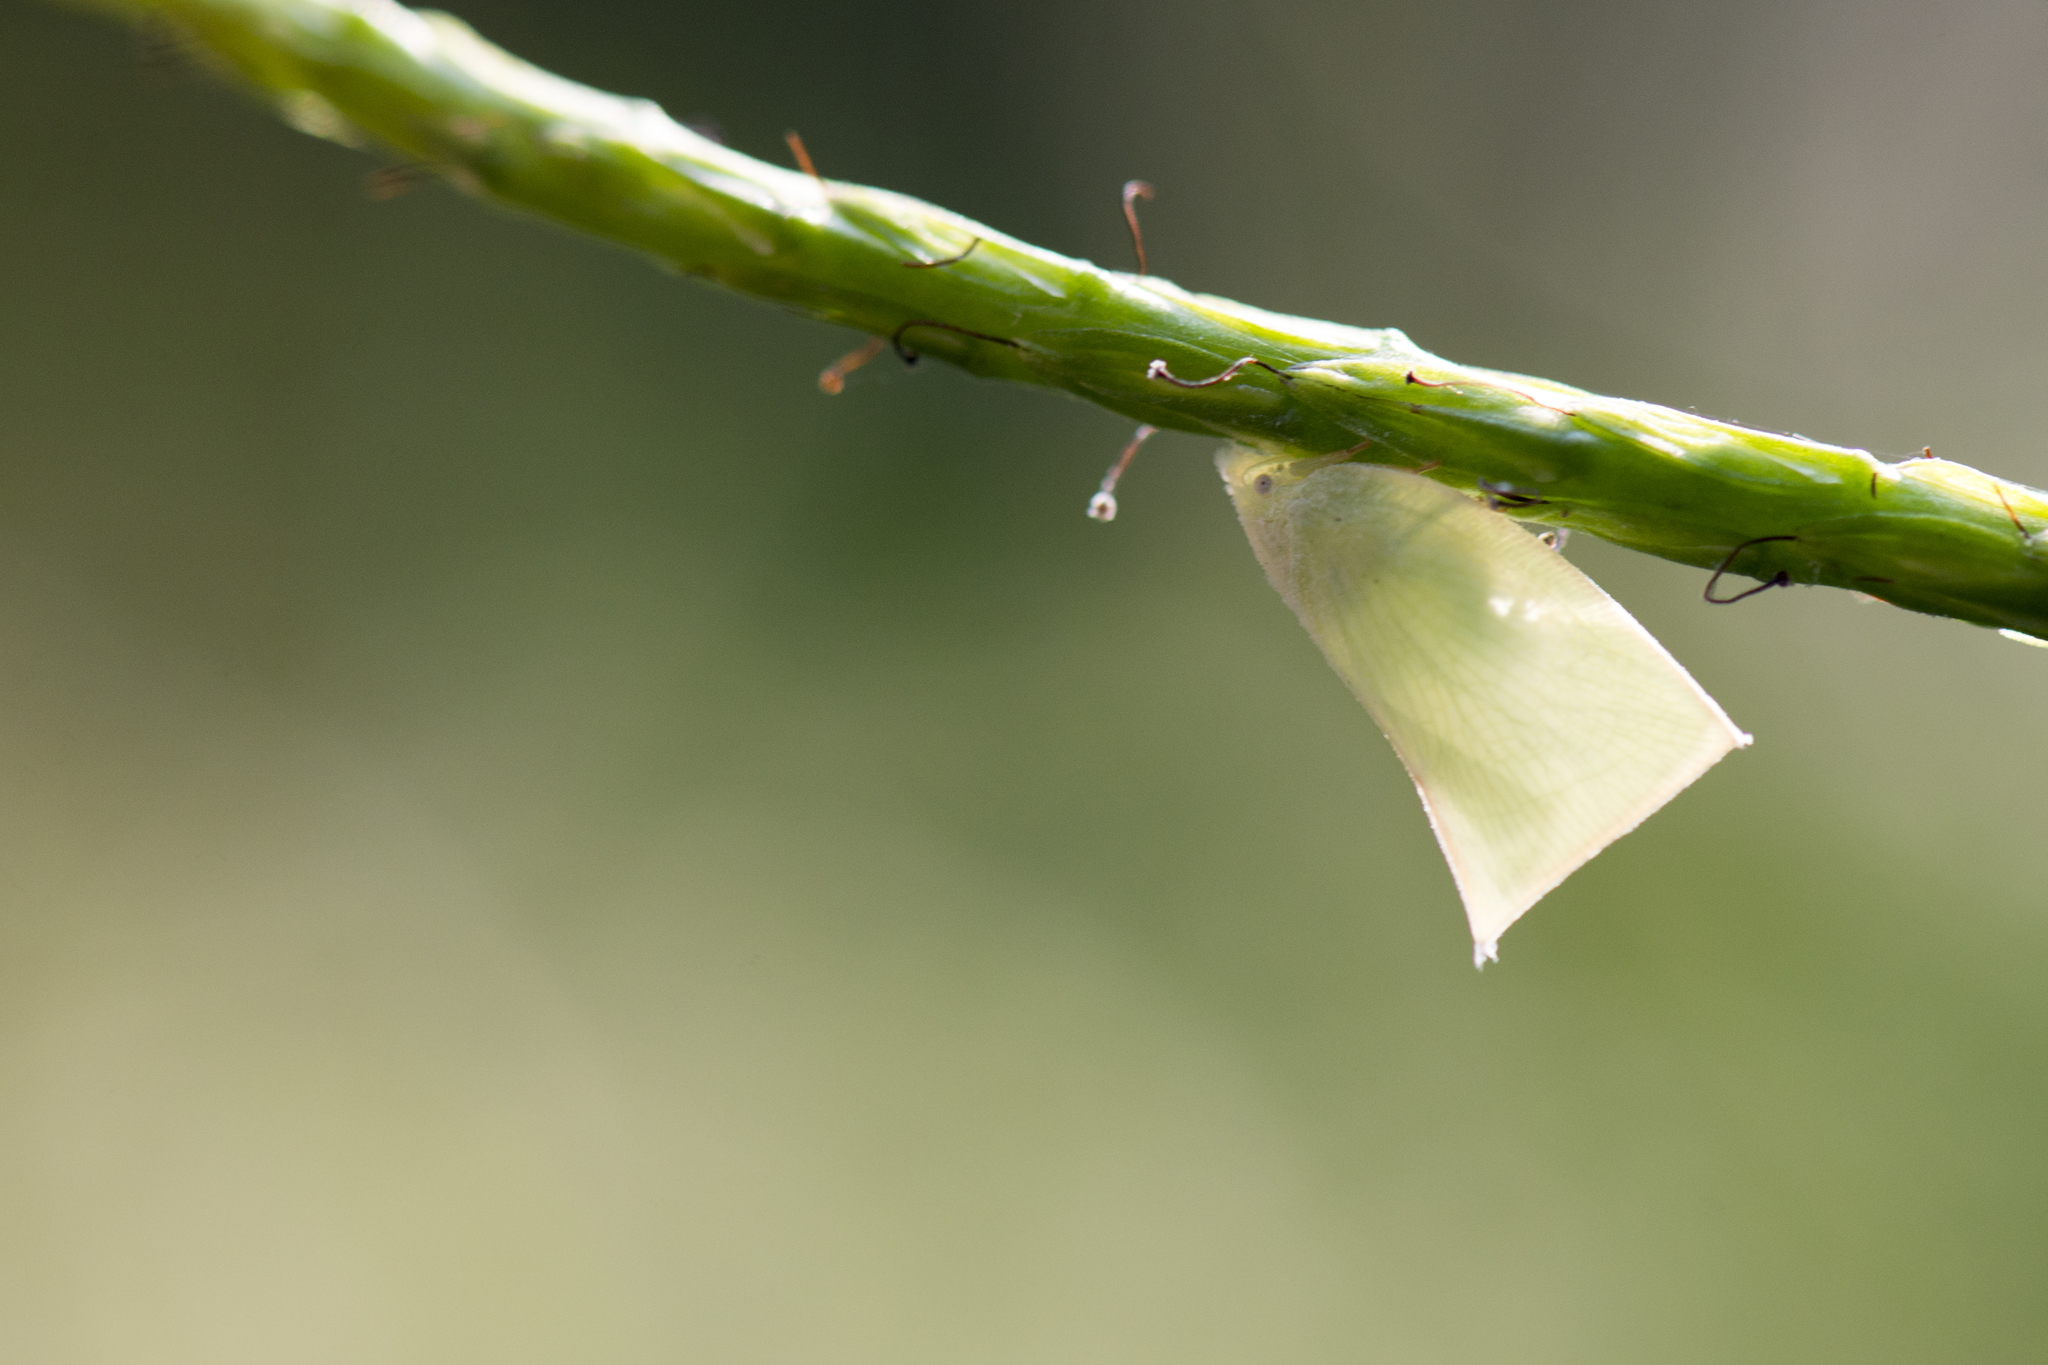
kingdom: Animalia
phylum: Arthropoda
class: Insecta
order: Hemiptera
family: Flatidae
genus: Phylliana
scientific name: Phylliana alba
